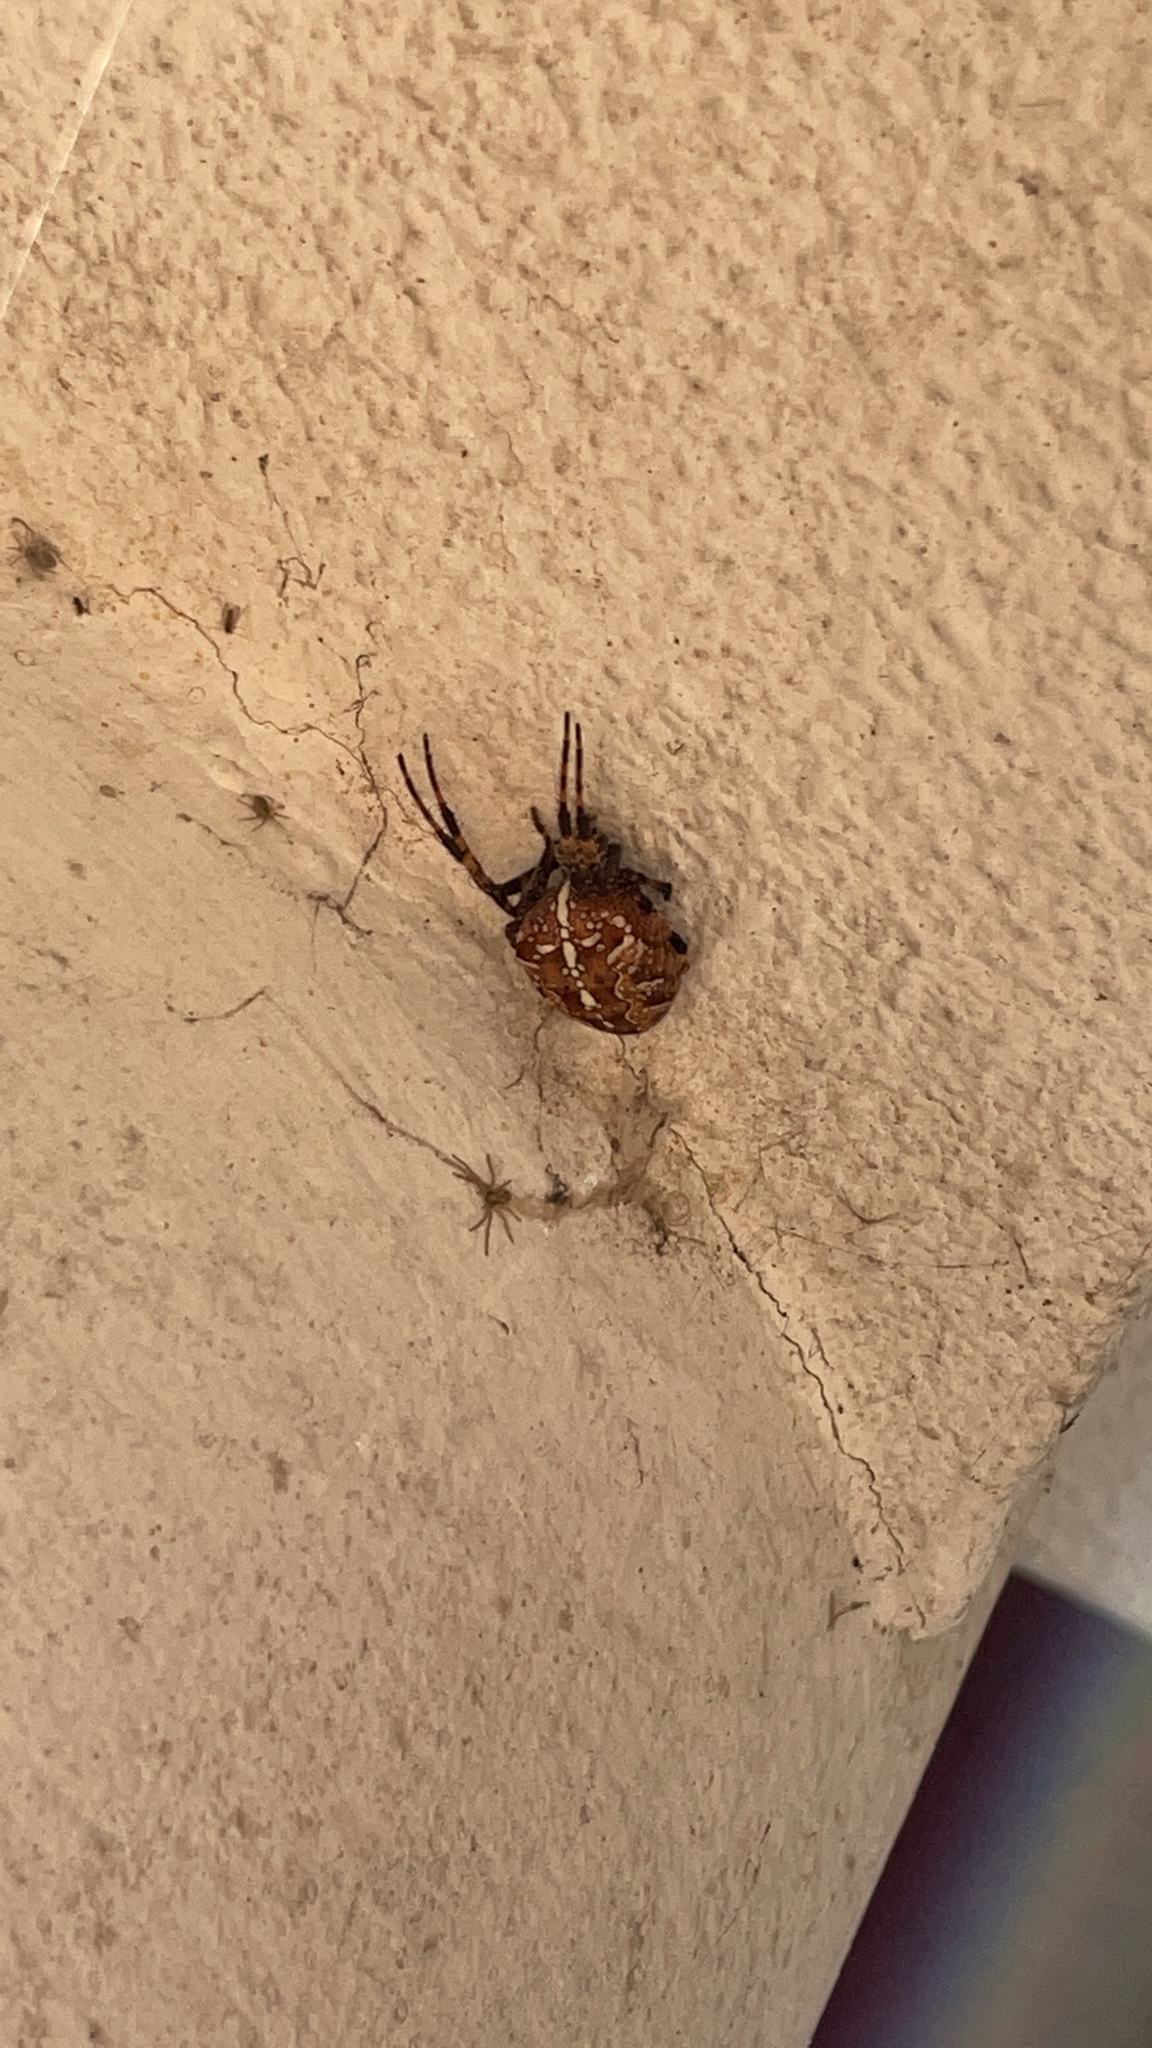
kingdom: Animalia
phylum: Arthropoda
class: Arachnida
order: Araneae
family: Araneidae
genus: Araneus
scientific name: Araneus diadematus
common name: Cross orbweaver
